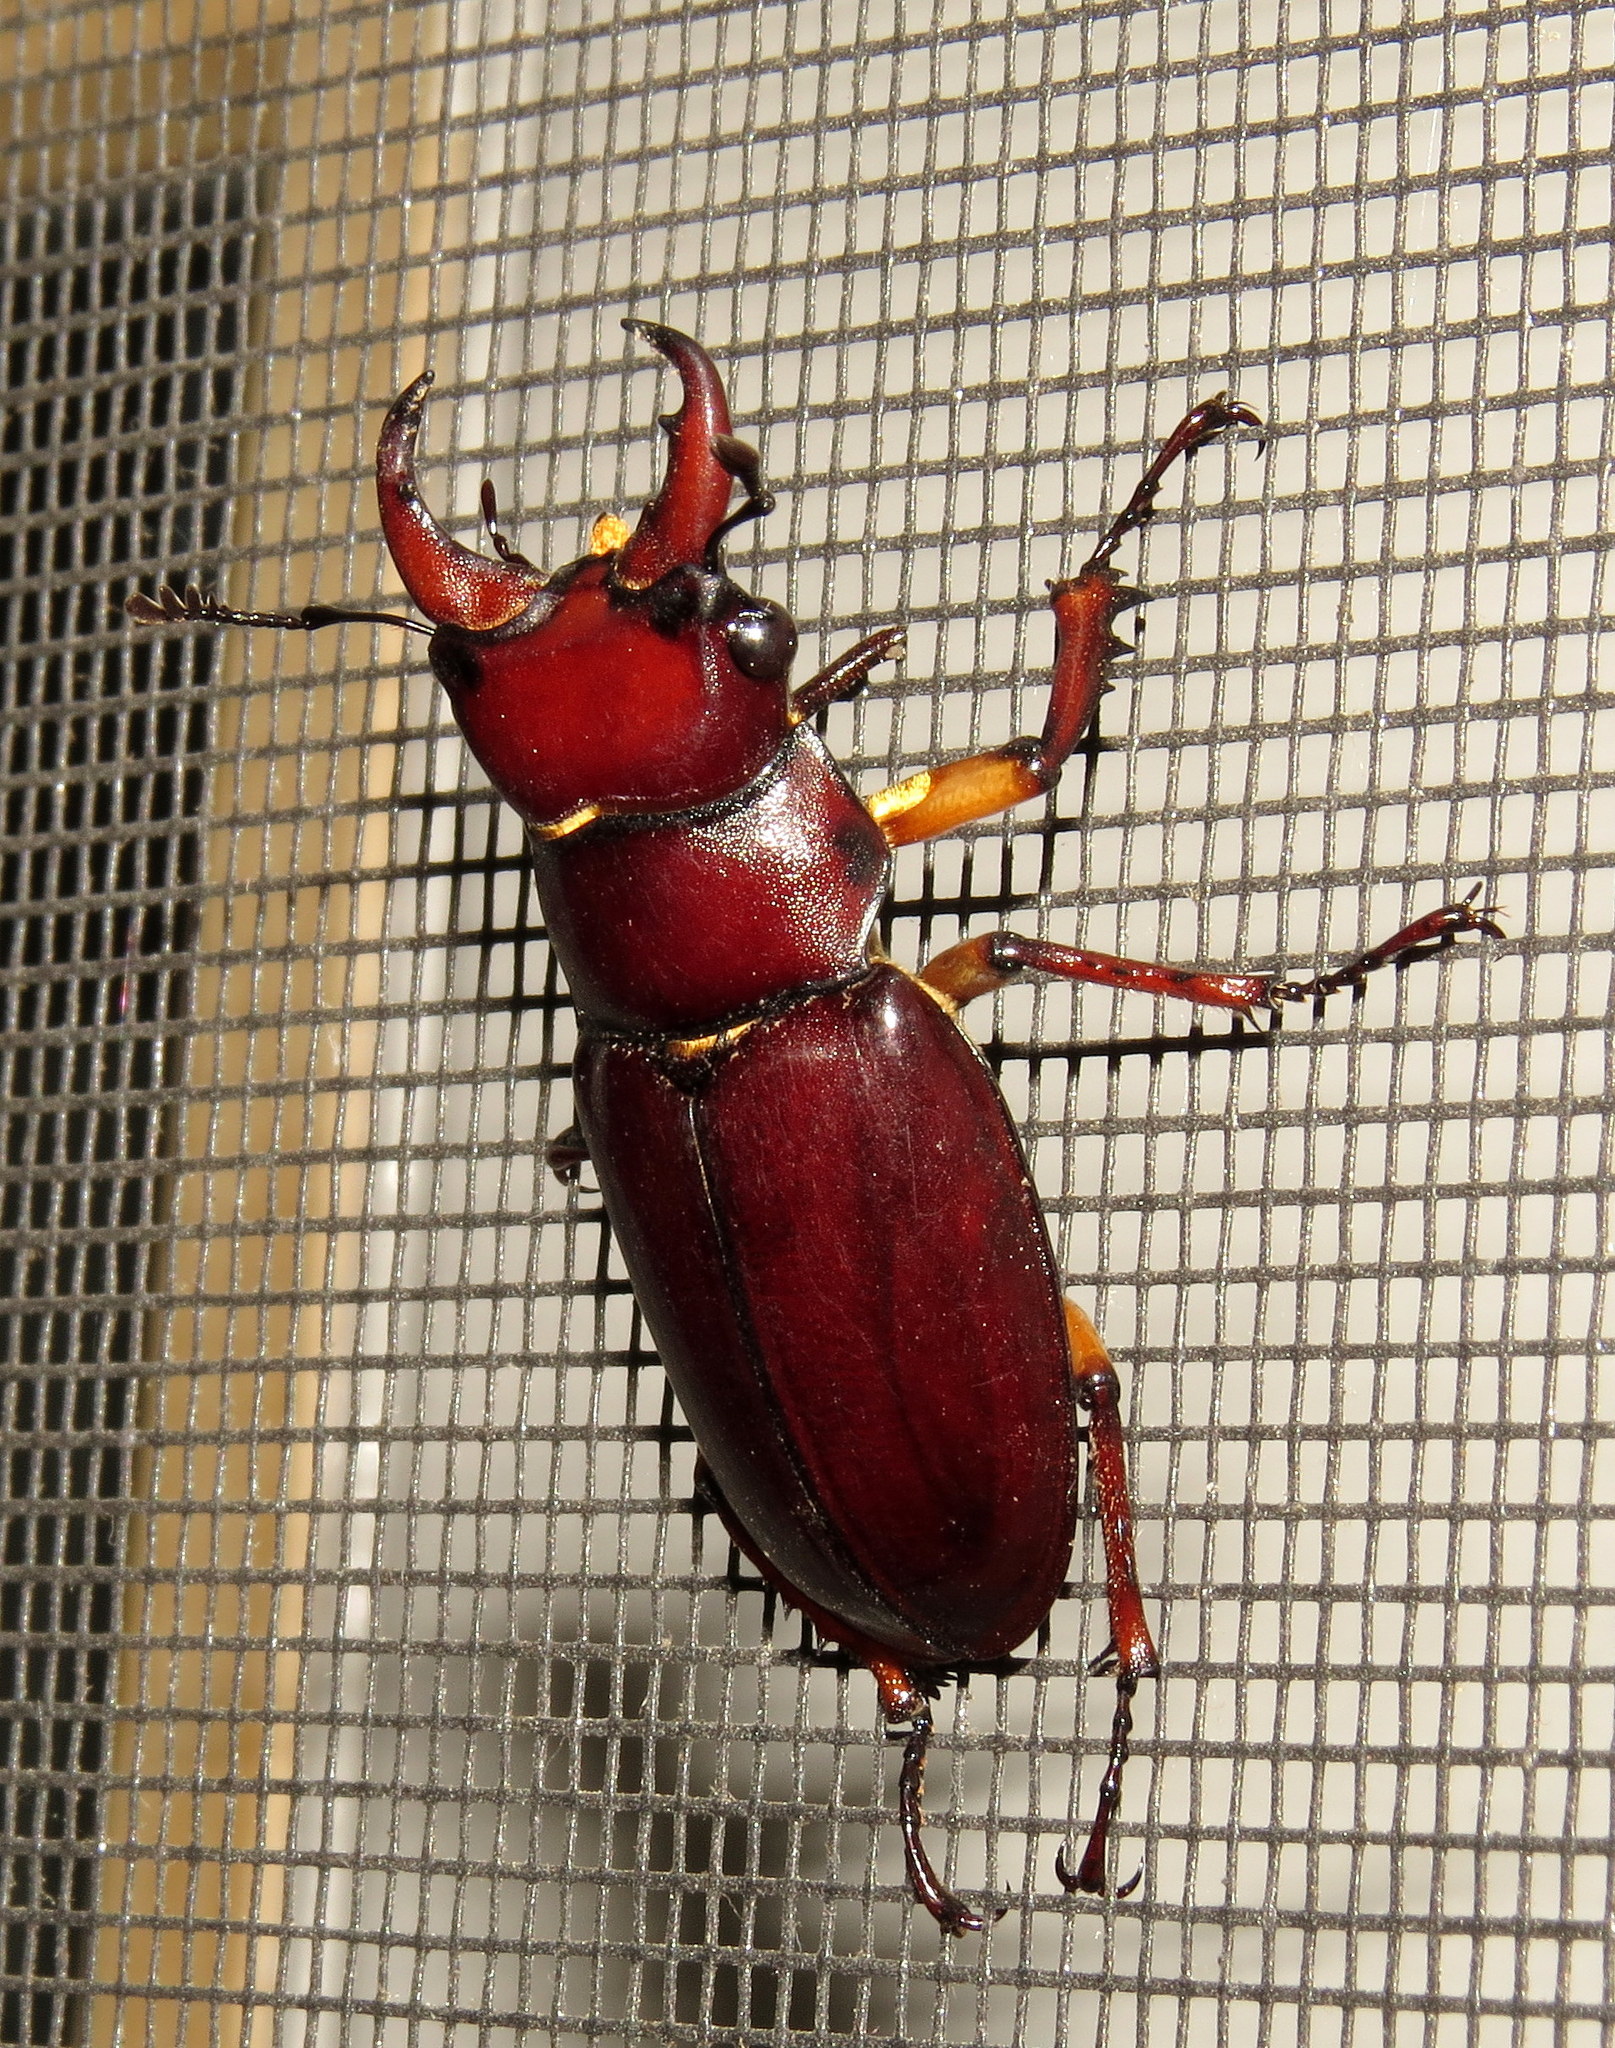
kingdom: Animalia
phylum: Arthropoda
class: Insecta
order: Coleoptera
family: Lucanidae
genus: Lucanus
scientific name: Lucanus capreolus
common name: Stag beetle
